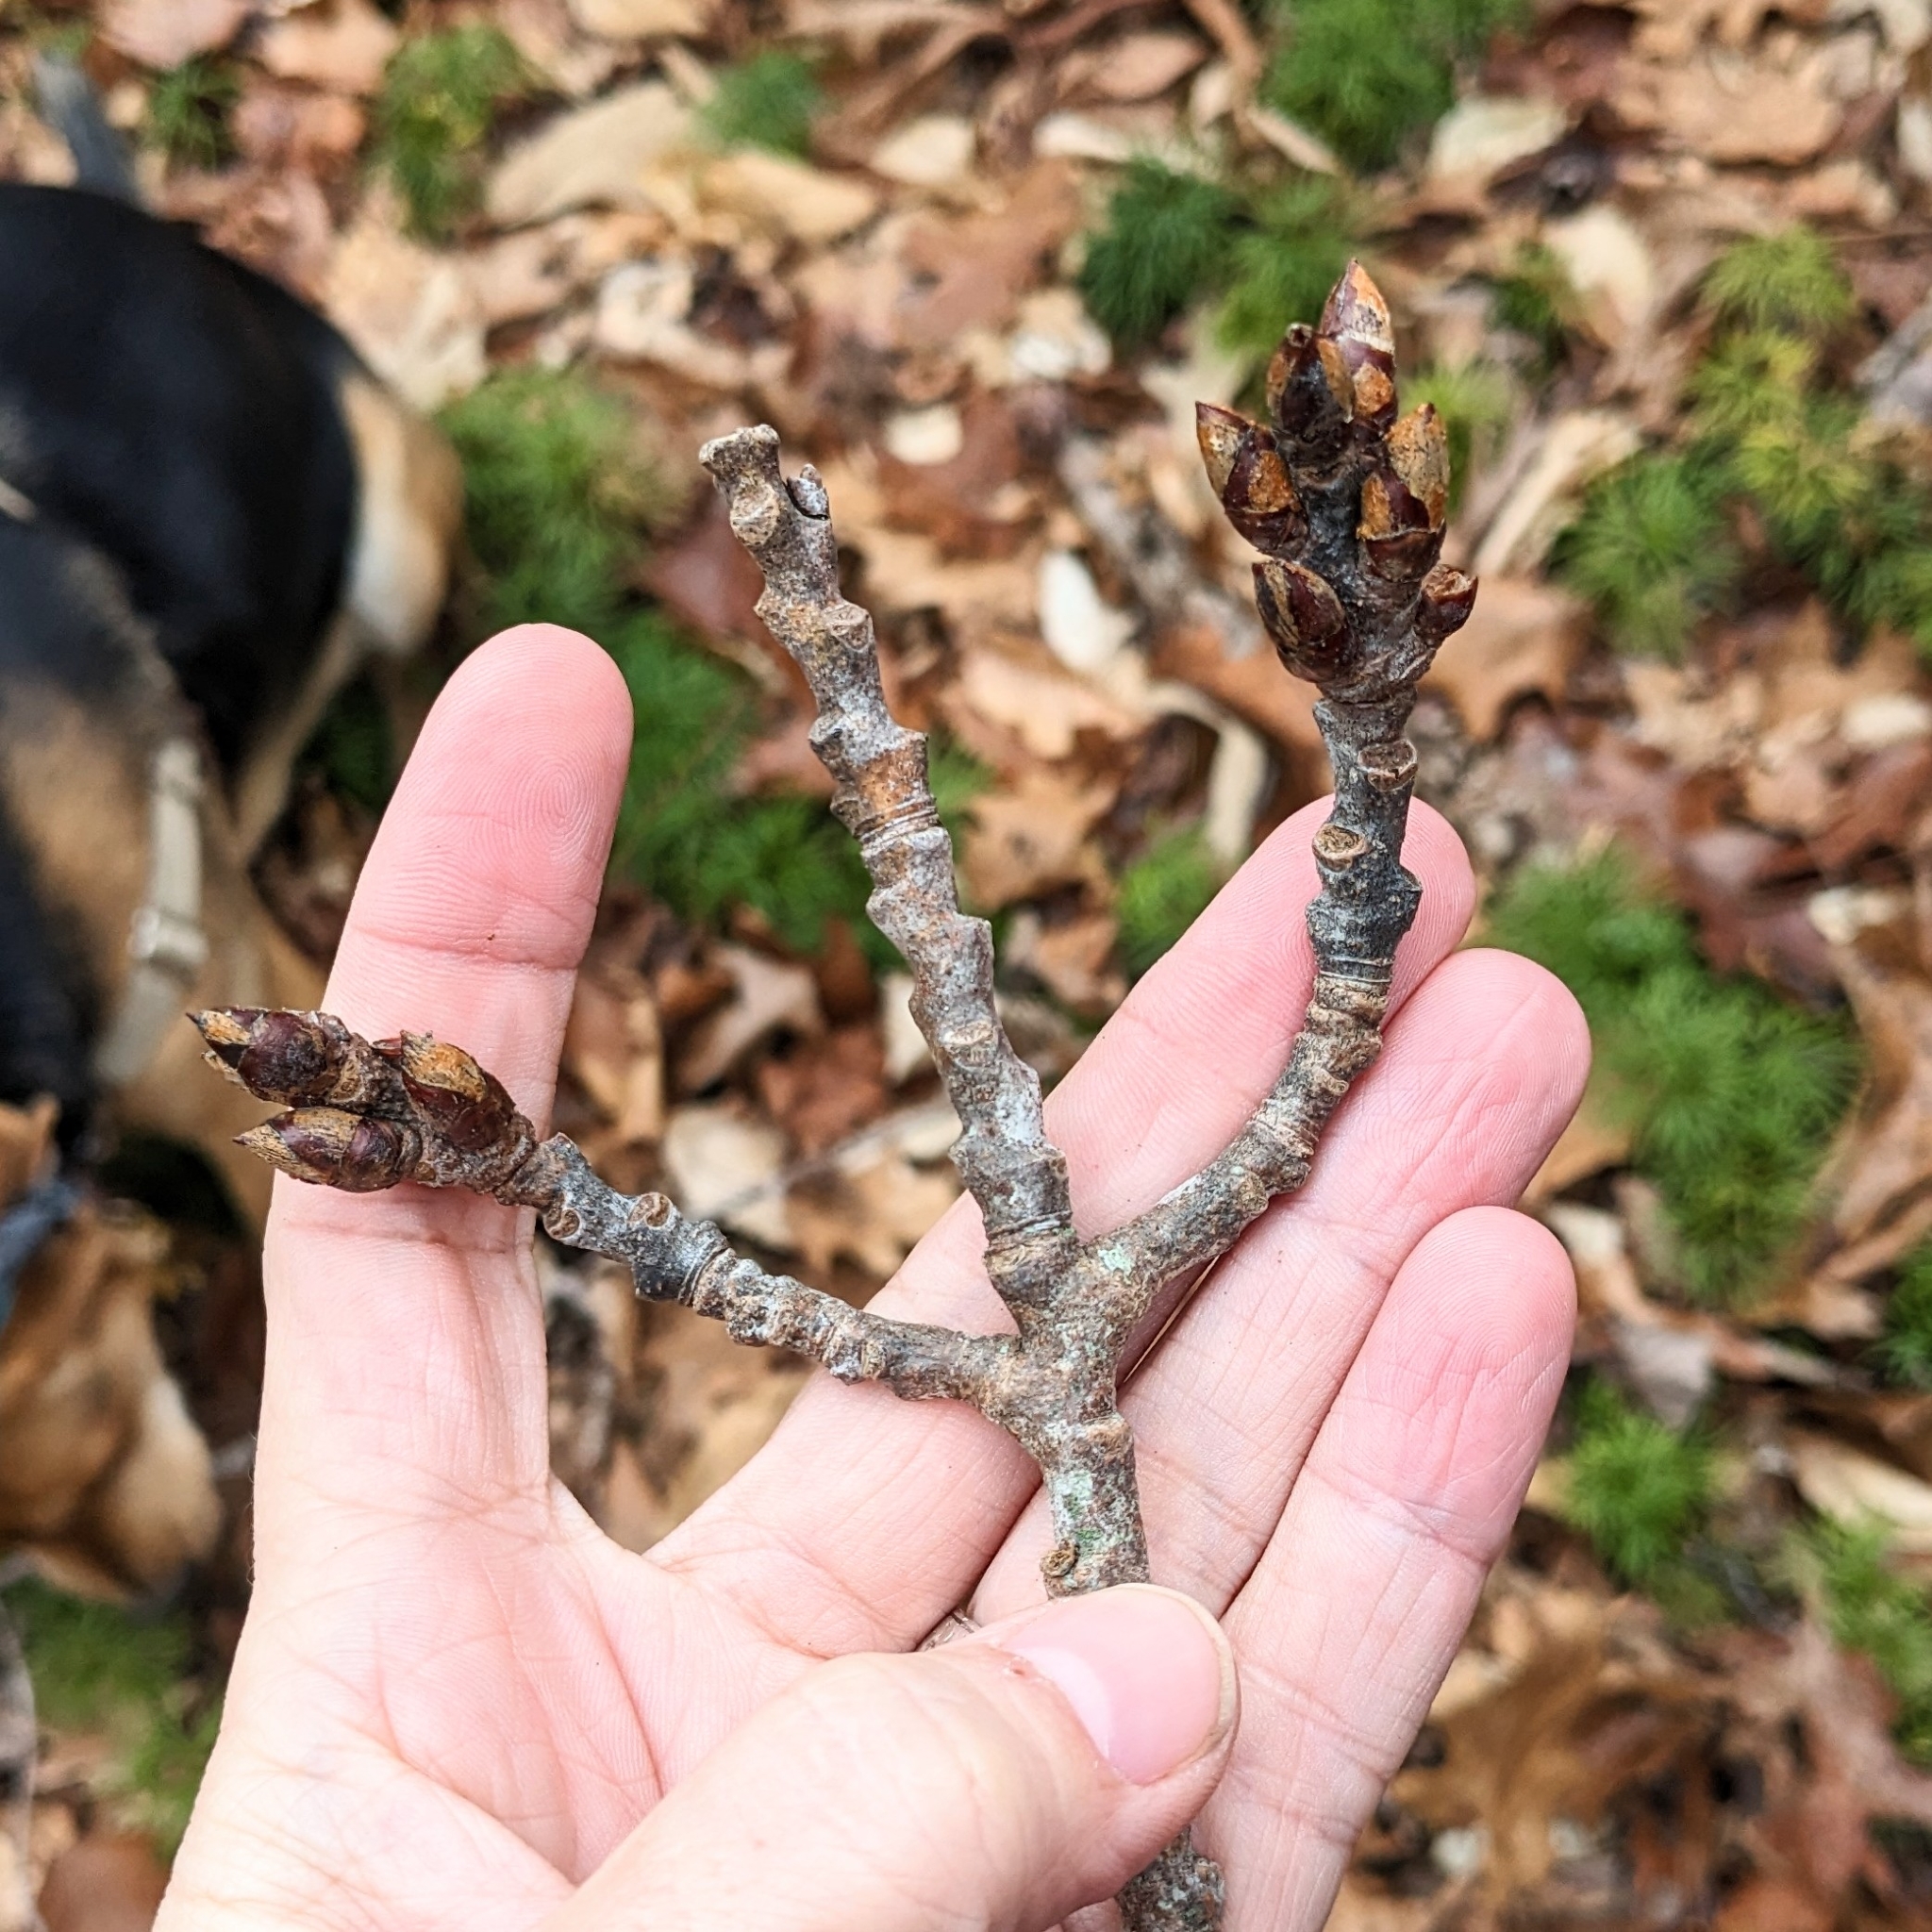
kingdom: Plantae
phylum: Tracheophyta
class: Magnoliopsida
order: Malpighiales
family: Salicaceae
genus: Populus
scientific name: Populus grandidentata
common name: Bigtooth aspen
